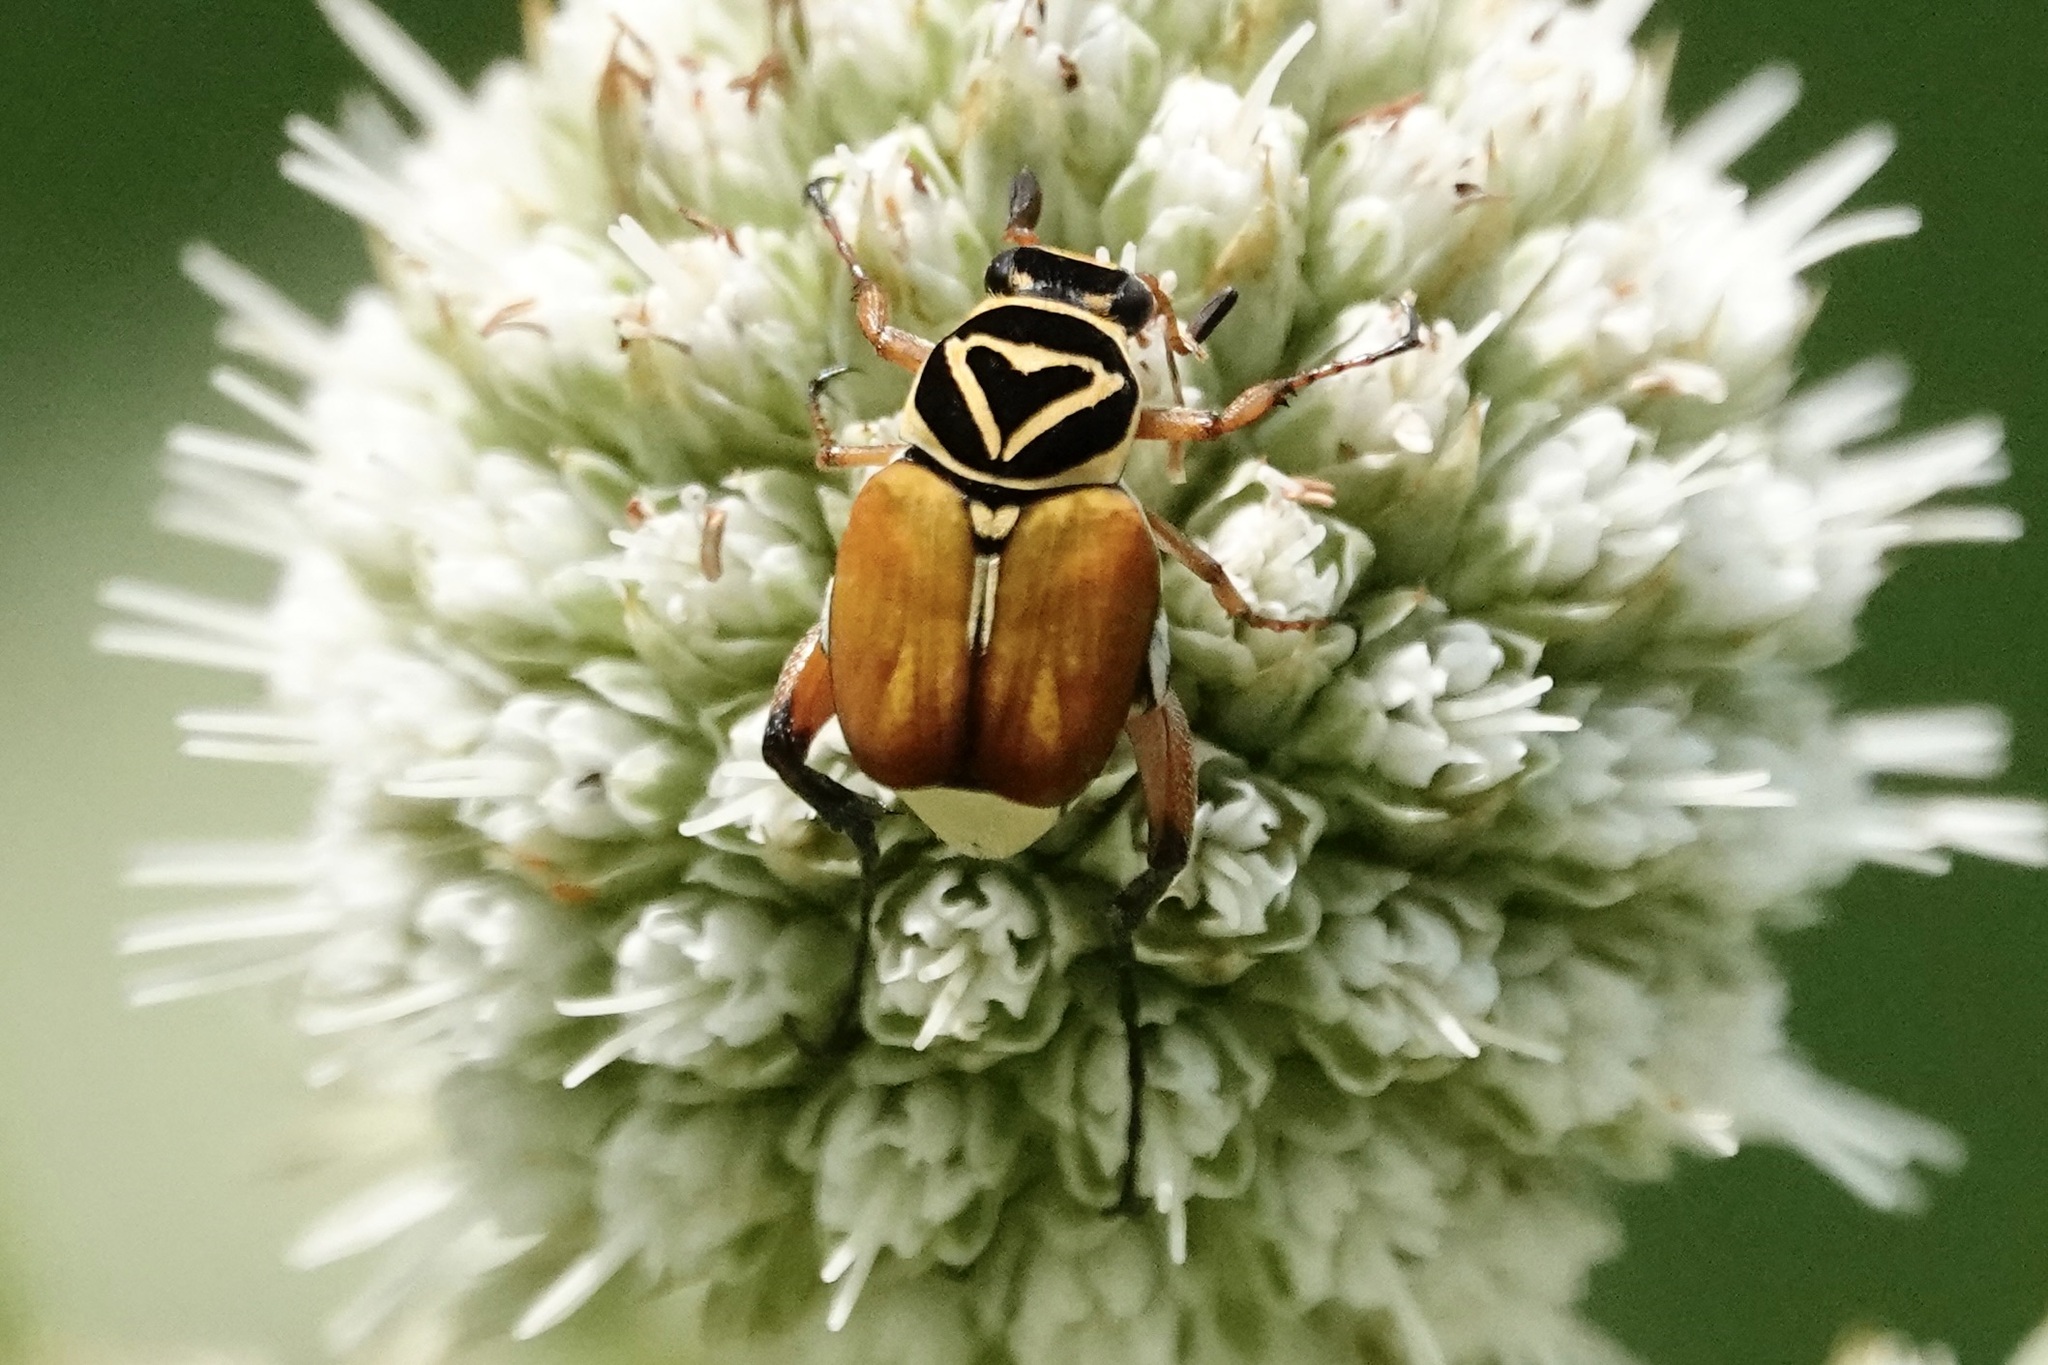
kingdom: Animalia
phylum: Arthropoda
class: Insecta
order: Coleoptera
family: Scarabaeidae
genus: Trigonopeltastes
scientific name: Trigonopeltastes delta
